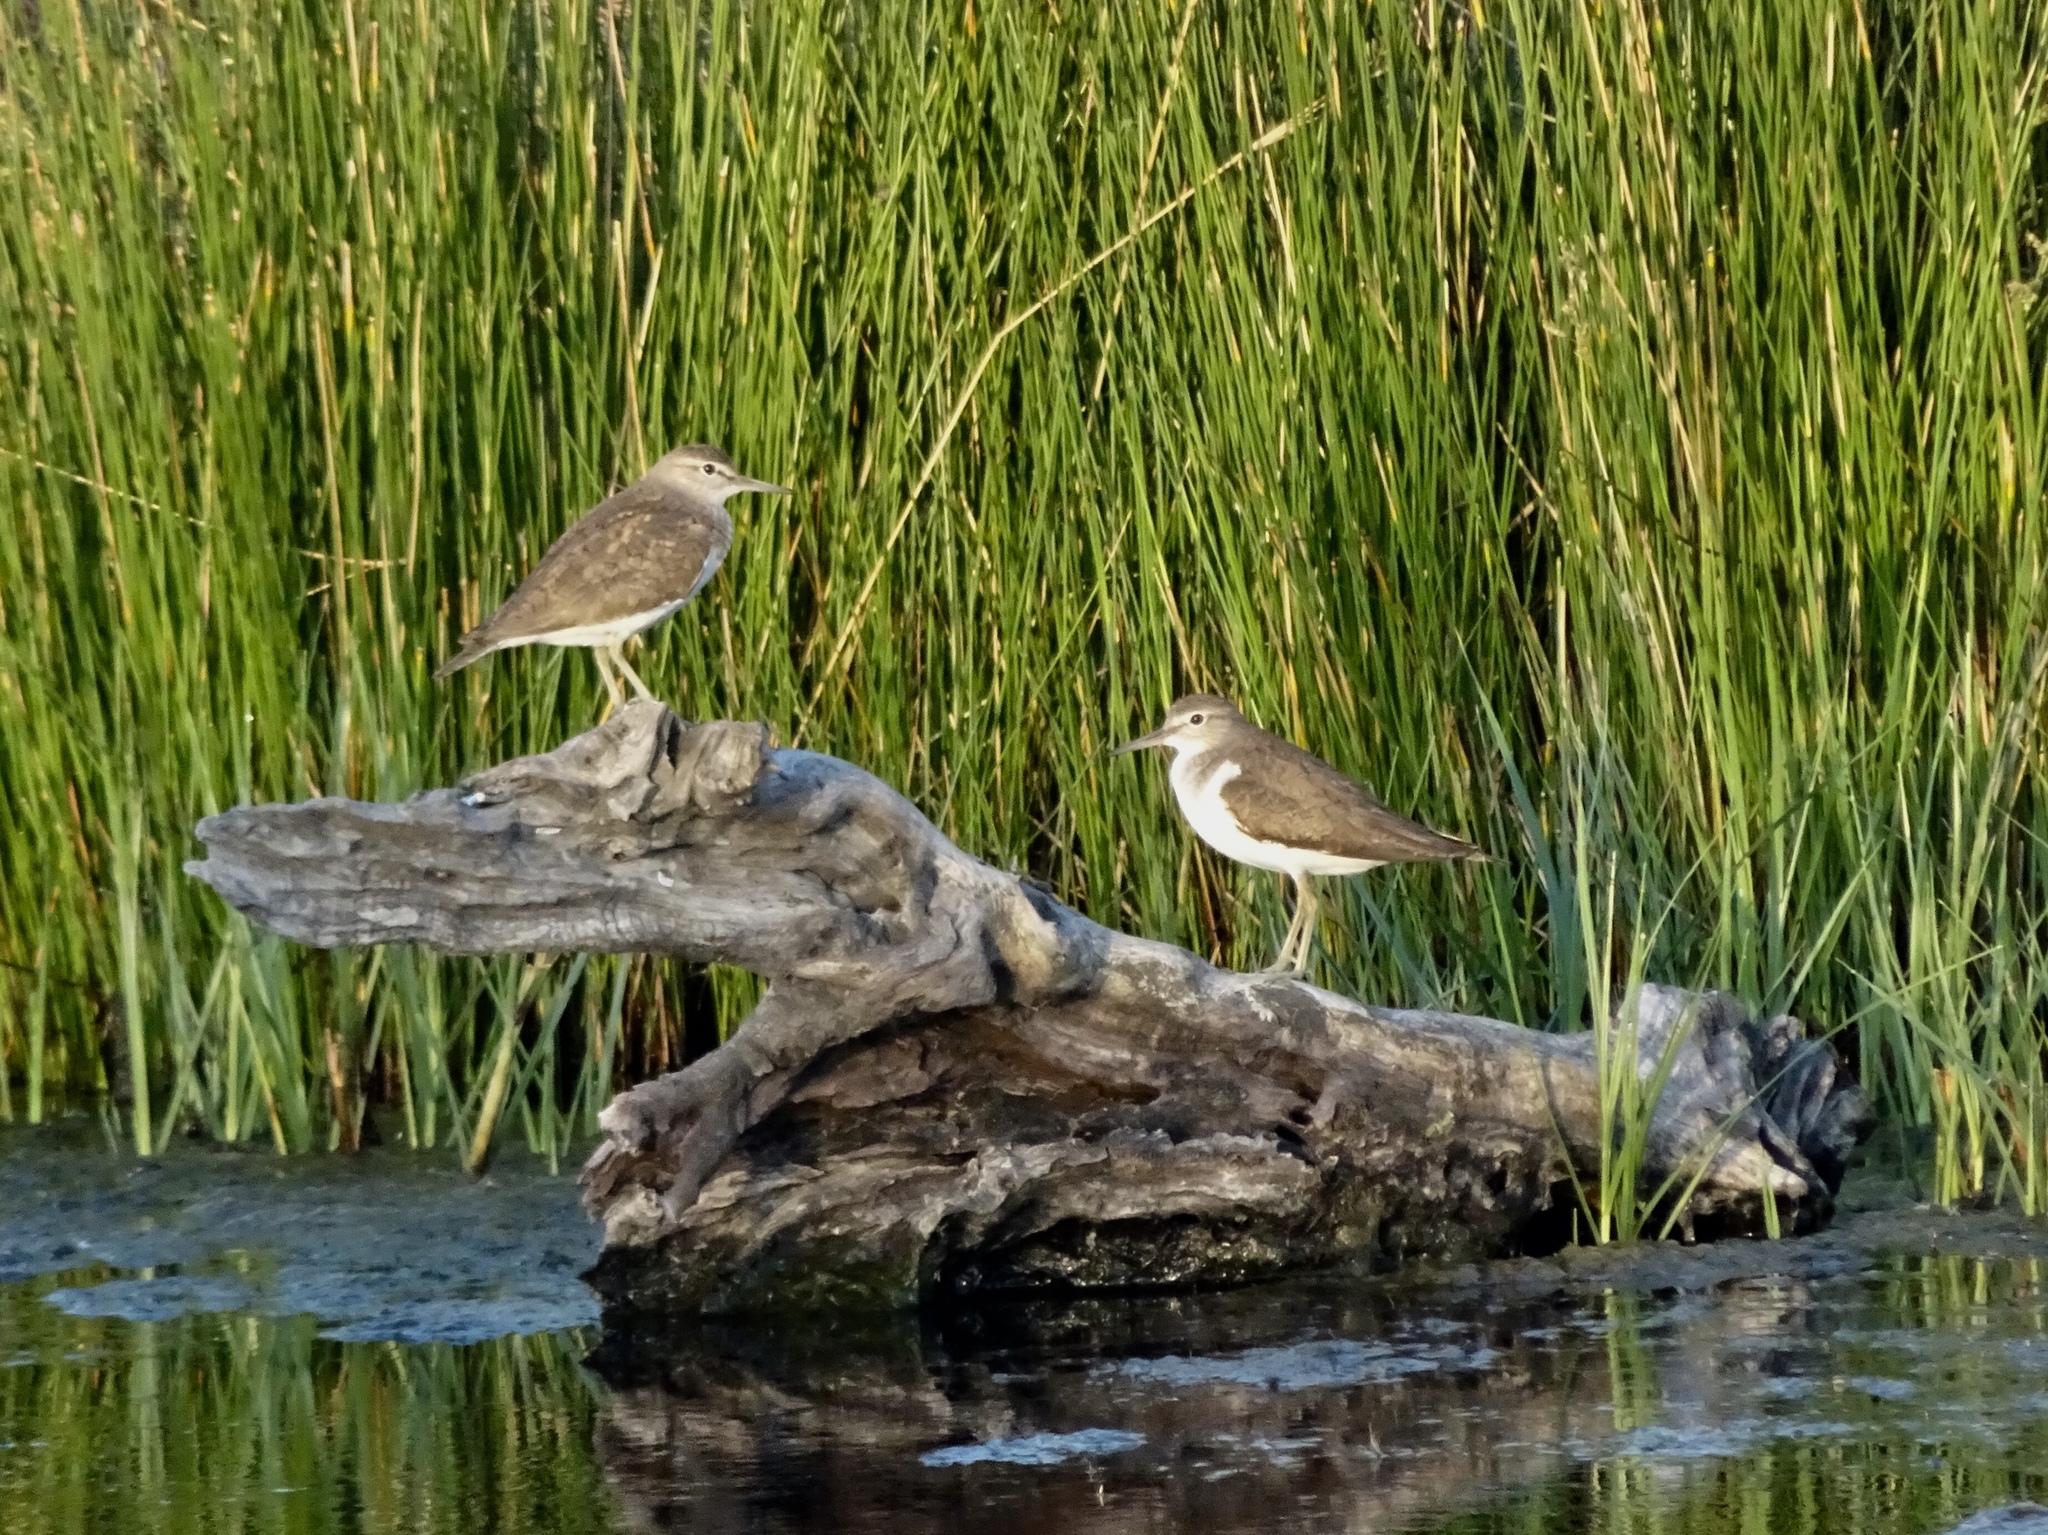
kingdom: Animalia
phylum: Chordata
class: Aves
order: Charadriiformes
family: Scolopacidae
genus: Actitis
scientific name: Actitis hypoleucos
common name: Common sandpiper
